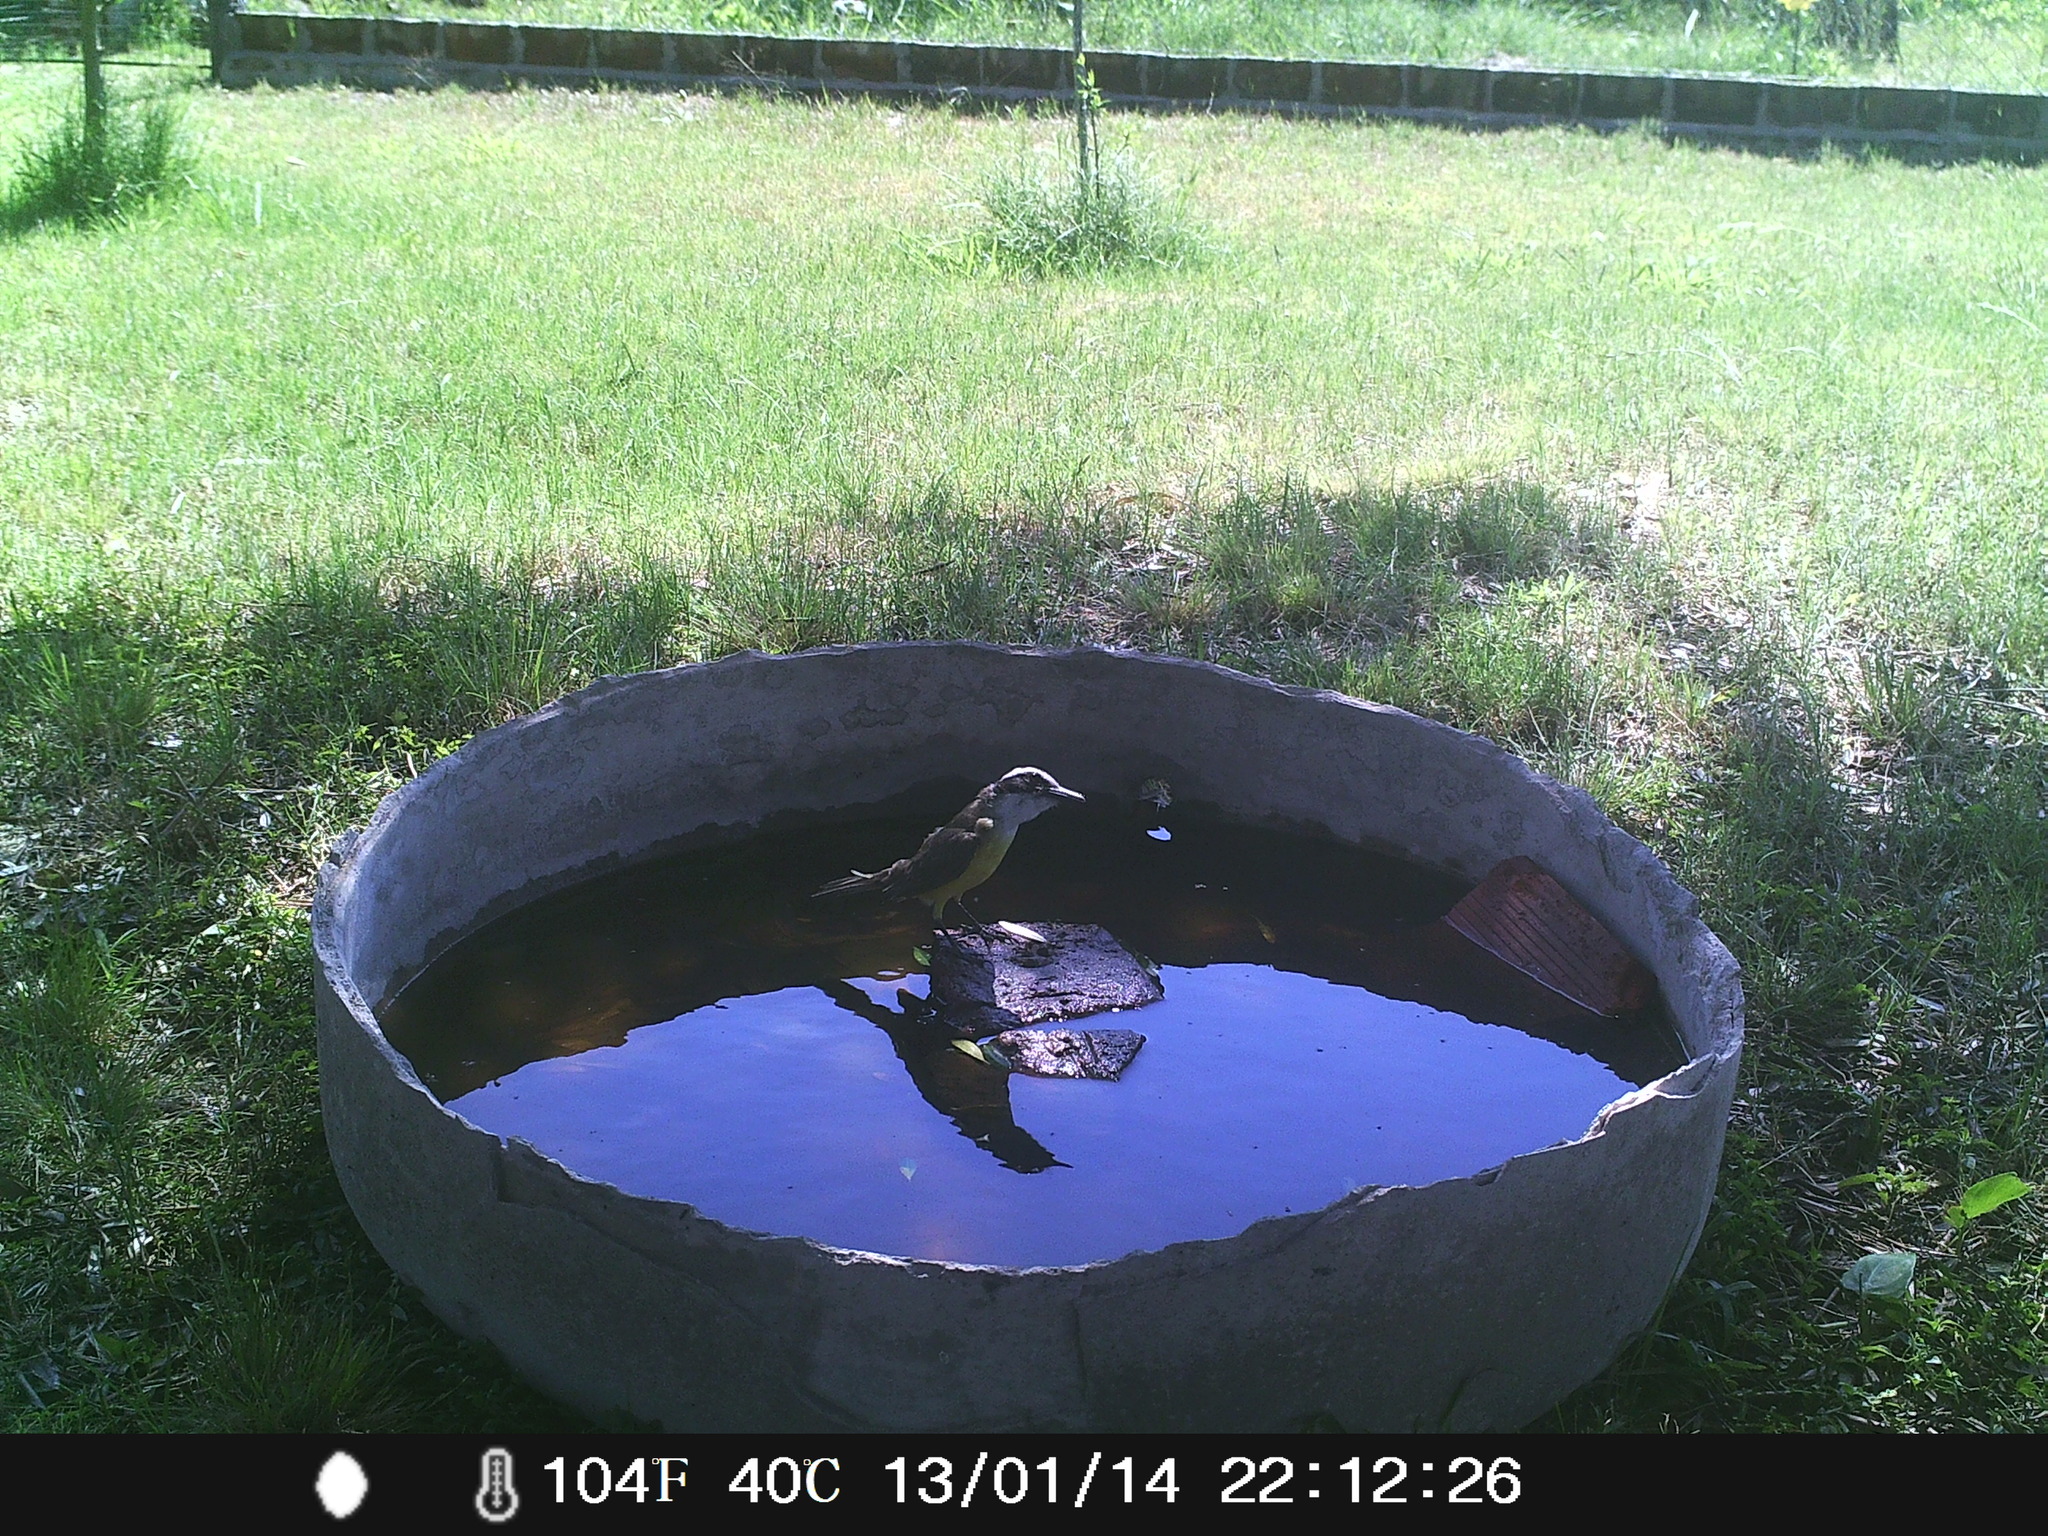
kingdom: Animalia
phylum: Chordata
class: Aves
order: Passeriformes
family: Tyrannidae
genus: Pitangus
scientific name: Pitangus sulphuratus
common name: Great kiskadee
